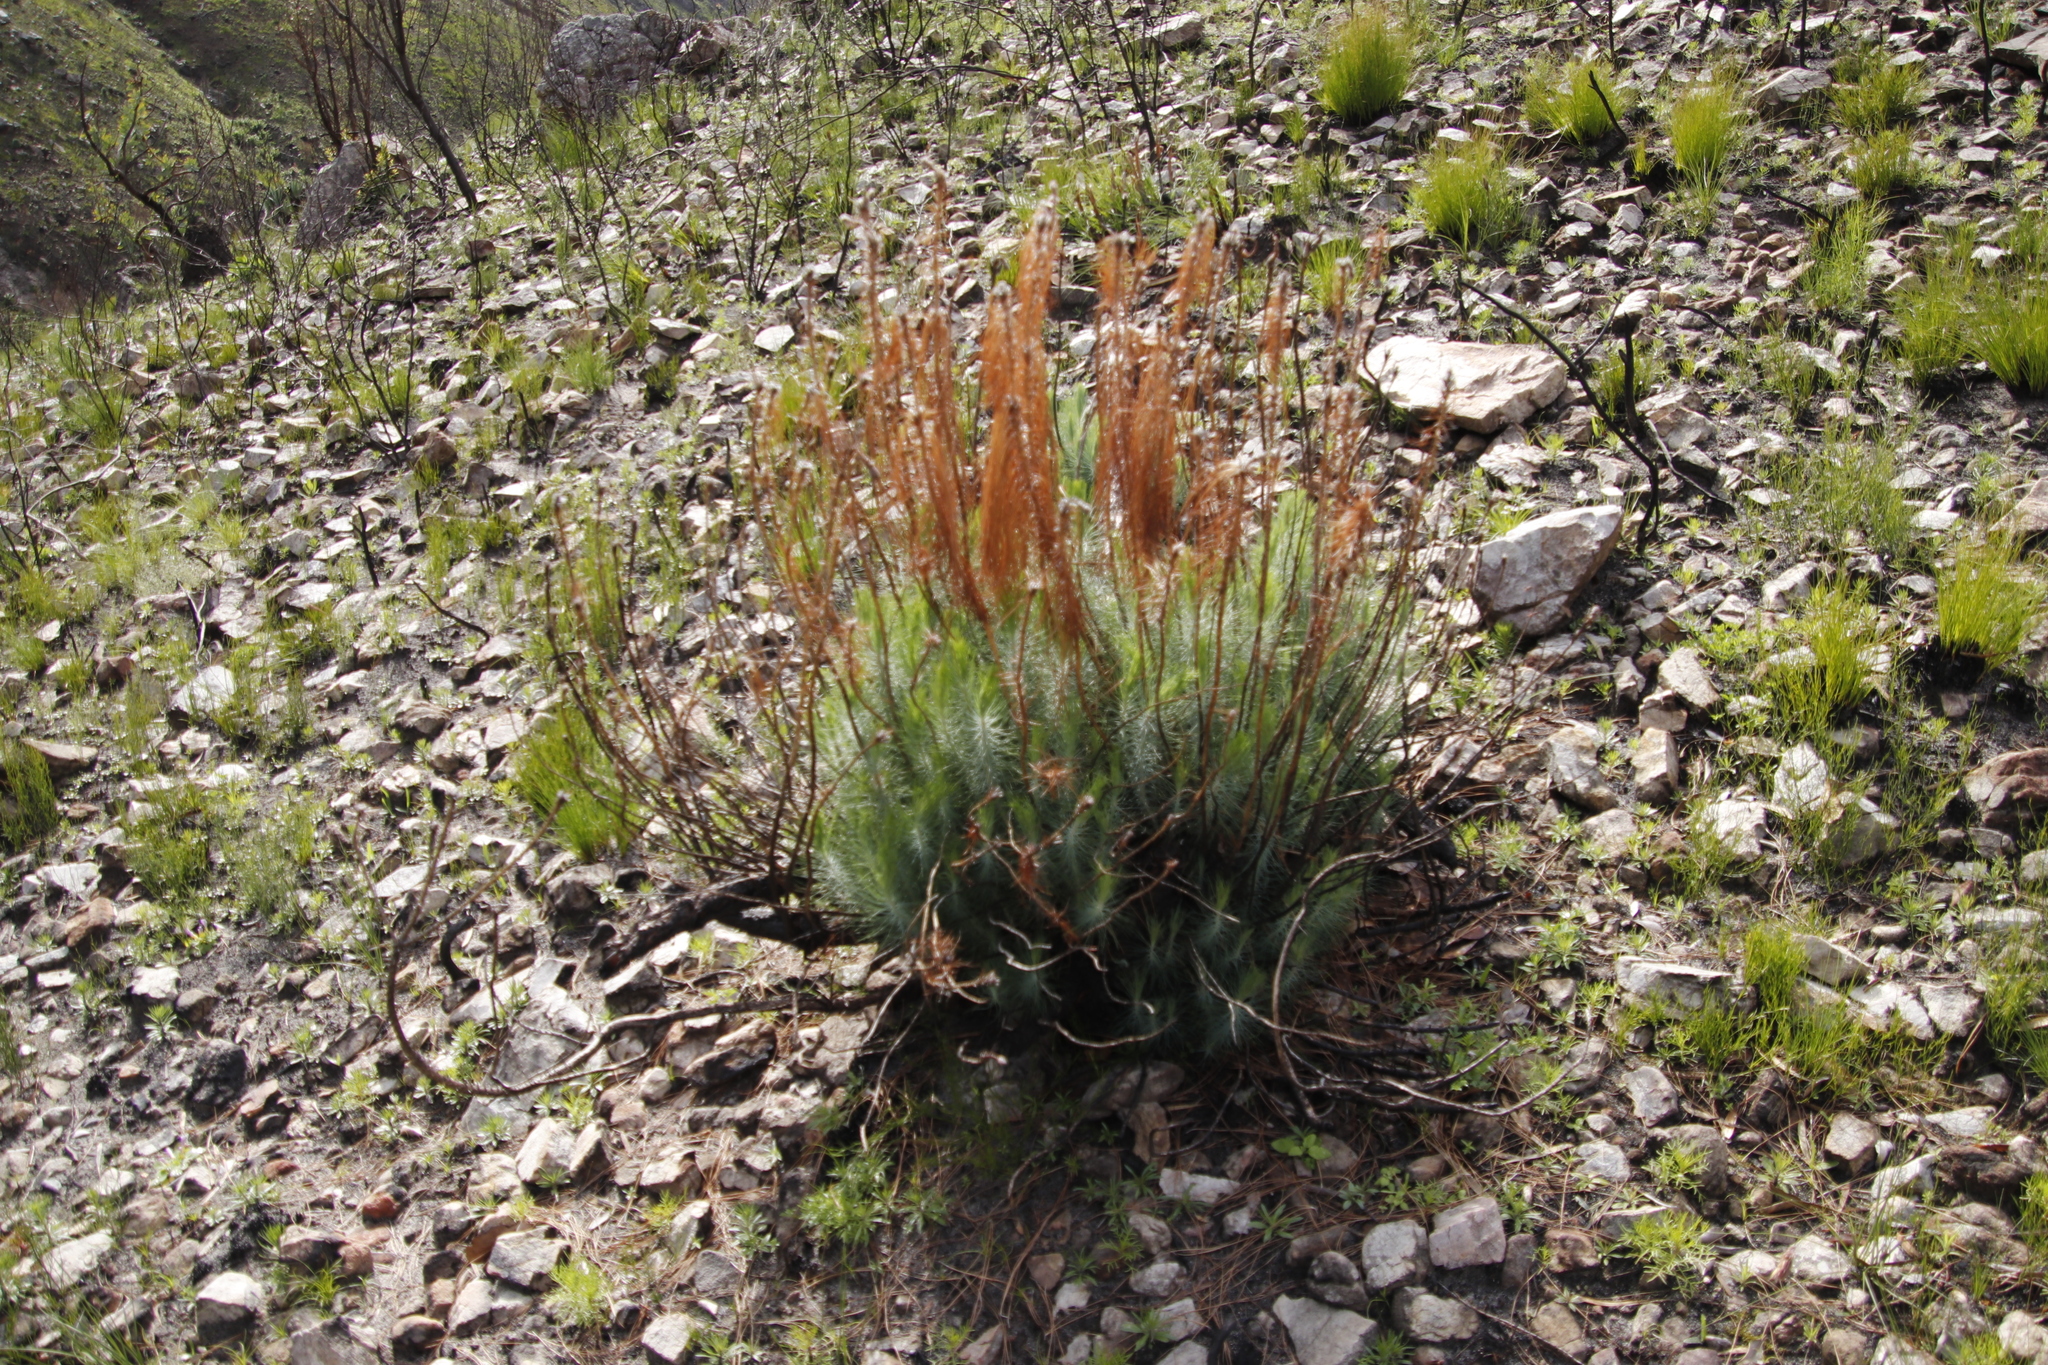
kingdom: Plantae
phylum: Tracheophyta
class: Pinopsida
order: Pinales
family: Pinaceae
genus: Pinus
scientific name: Pinus canariensis
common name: Canary islands pine
